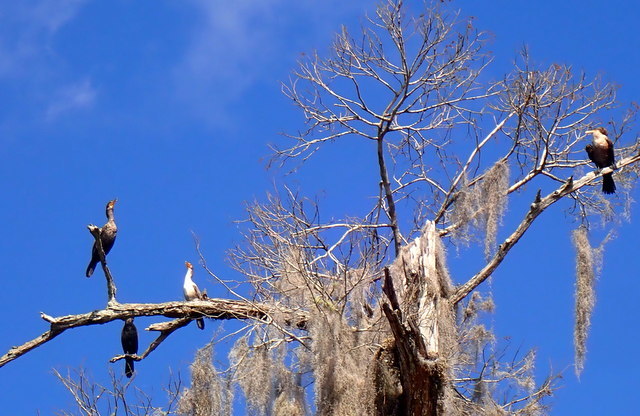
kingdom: Animalia
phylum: Chordata
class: Aves
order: Suliformes
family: Phalacrocoracidae
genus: Phalacrocorax
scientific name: Phalacrocorax auritus
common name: Double-crested cormorant
